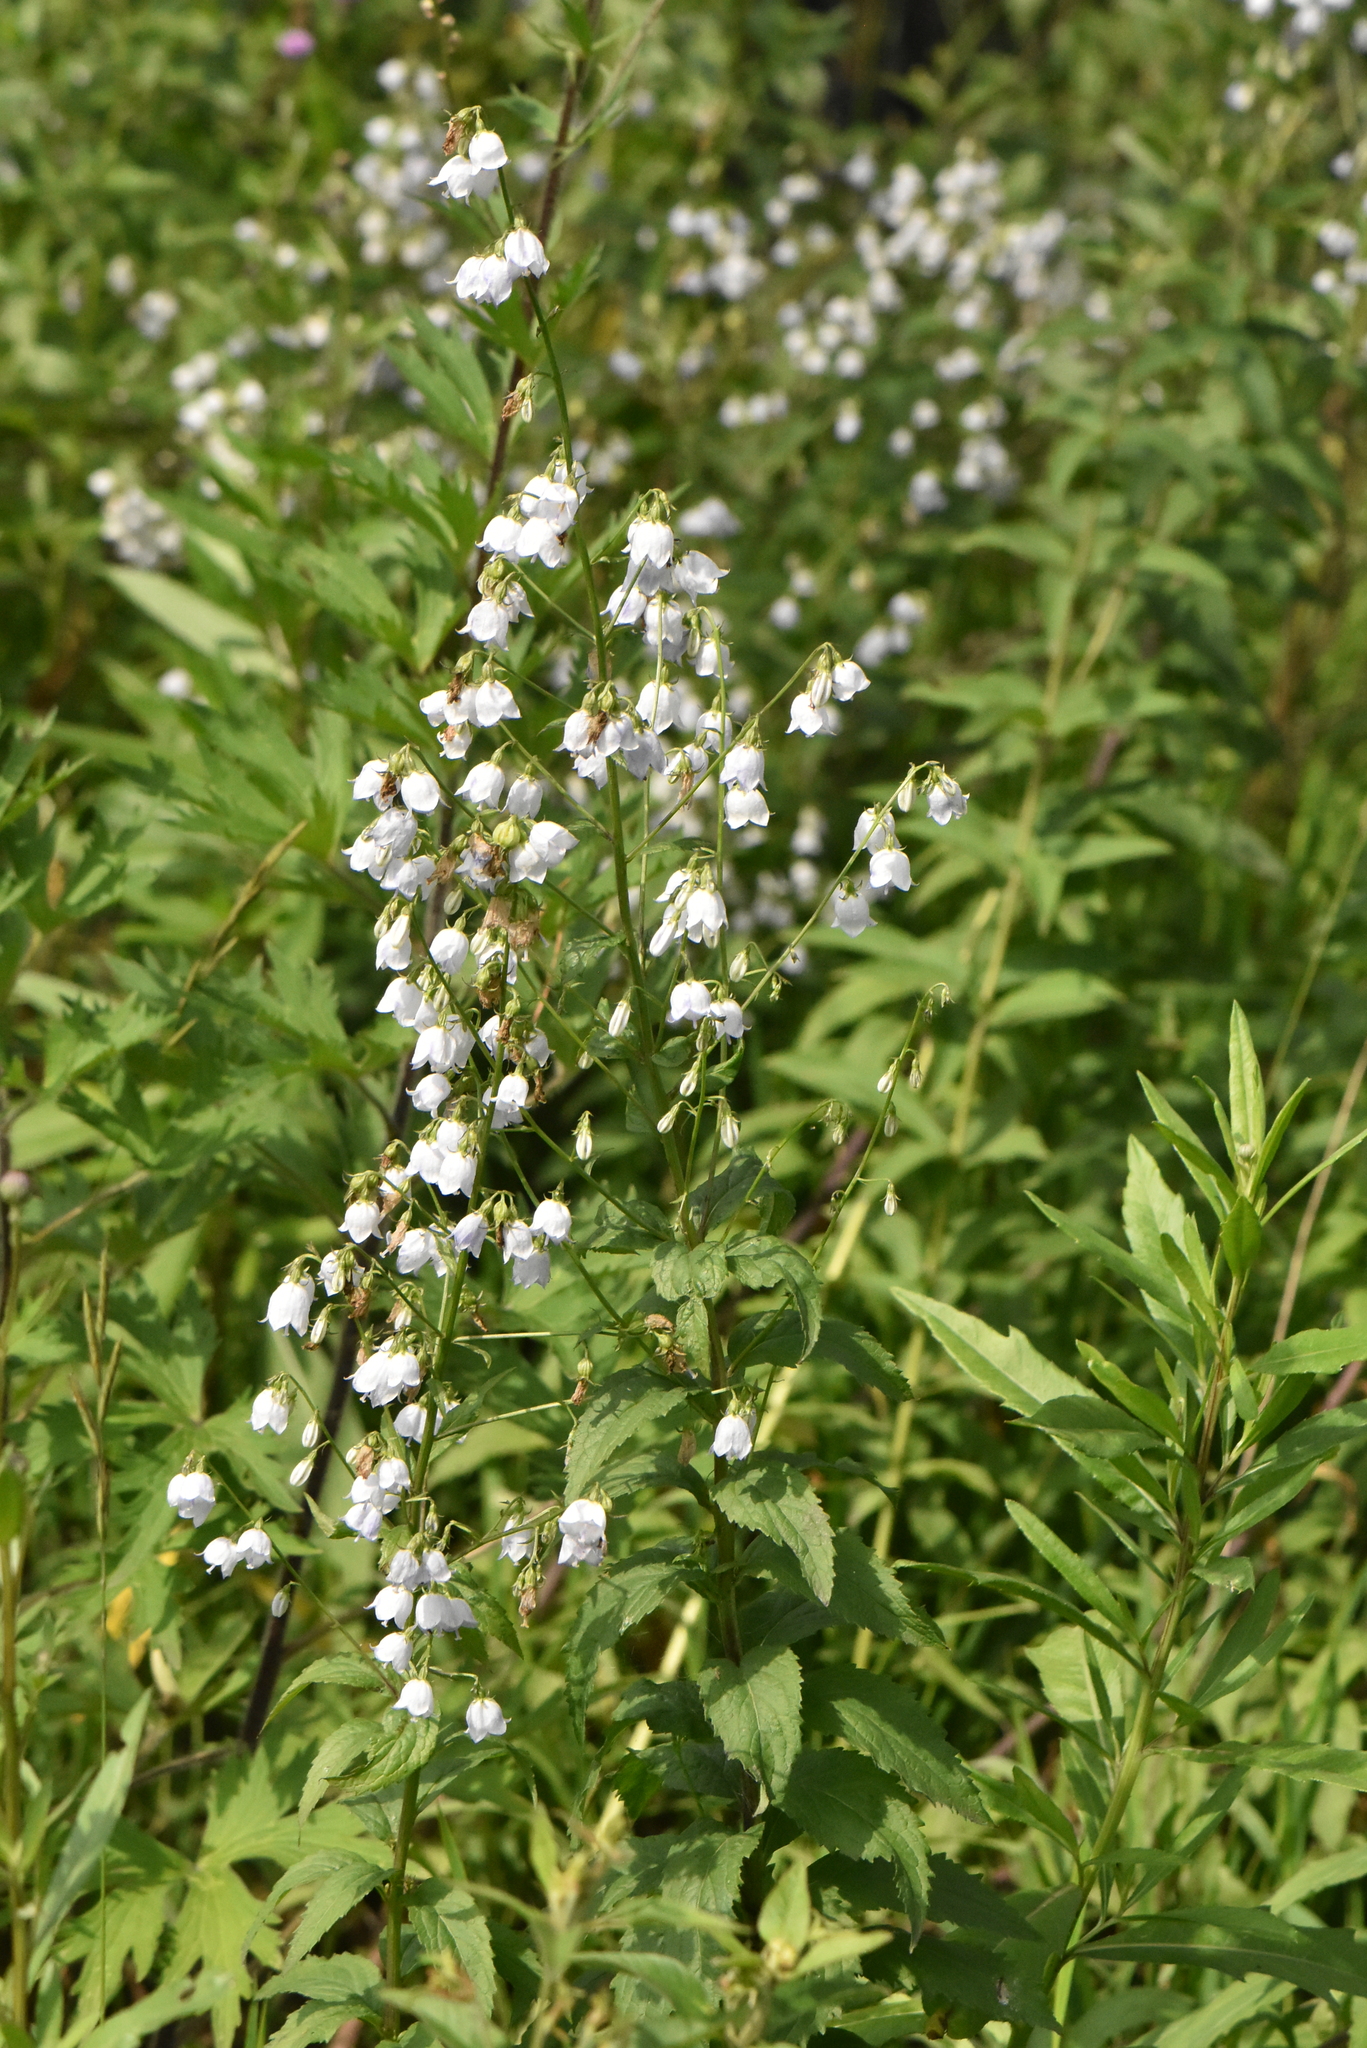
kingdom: Plantae
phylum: Tracheophyta
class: Magnoliopsida
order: Asterales
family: Campanulaceae
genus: Adenophora
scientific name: Adenophora liliifolia
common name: Lilyleaf ladybells
